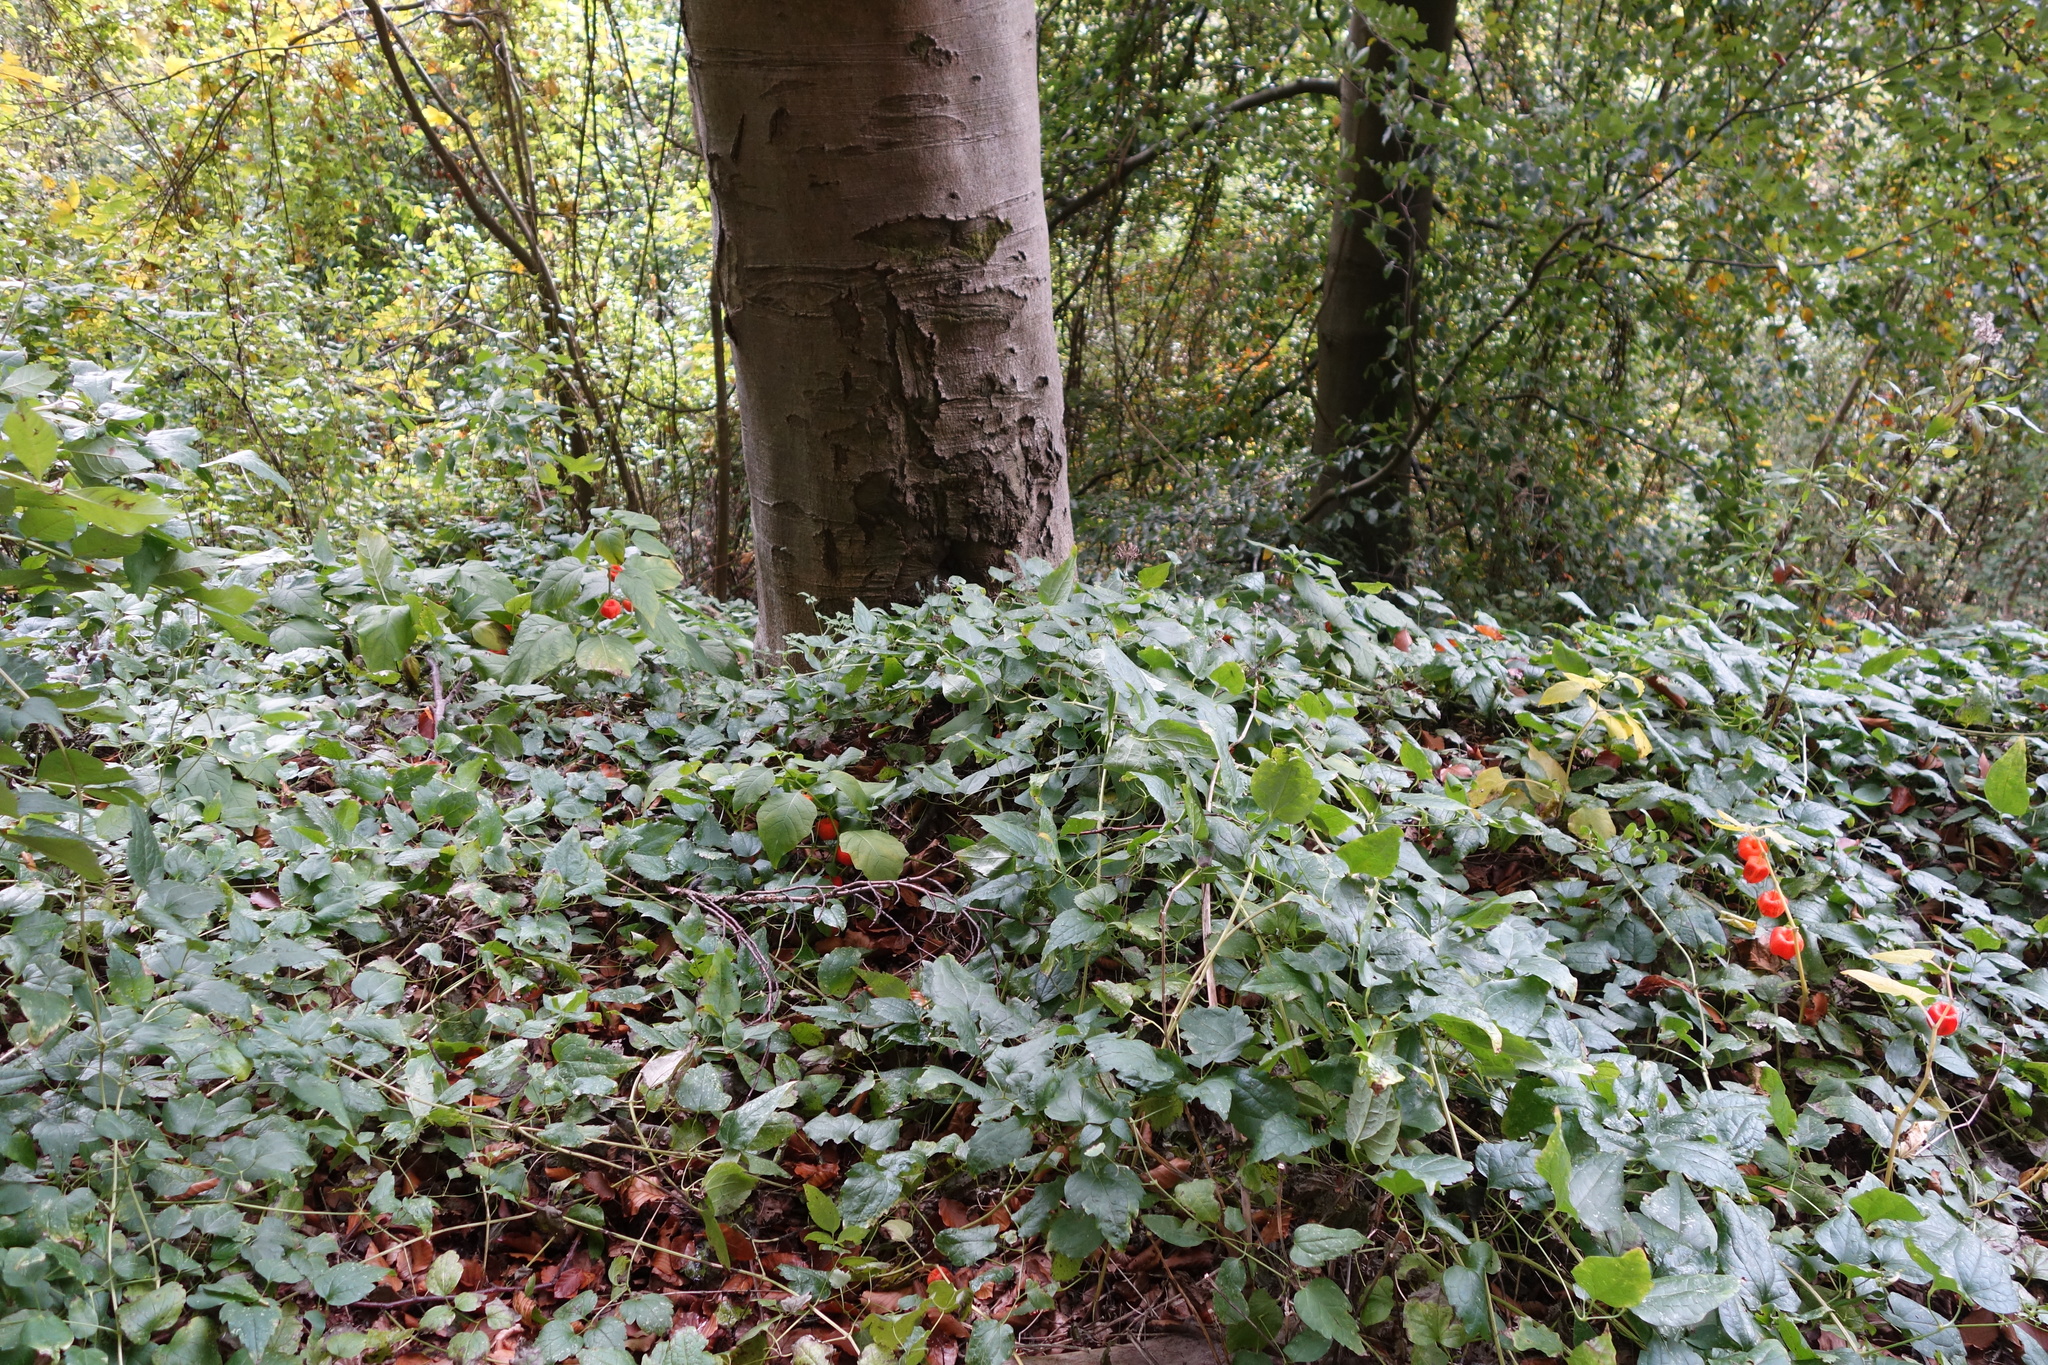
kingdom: Plantae
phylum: Tracheophyta
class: Magnoliopsida
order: Solanales
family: Solanaceae
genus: Alkekengi
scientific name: Alkekengi officinarum
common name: Japanese-lantern
